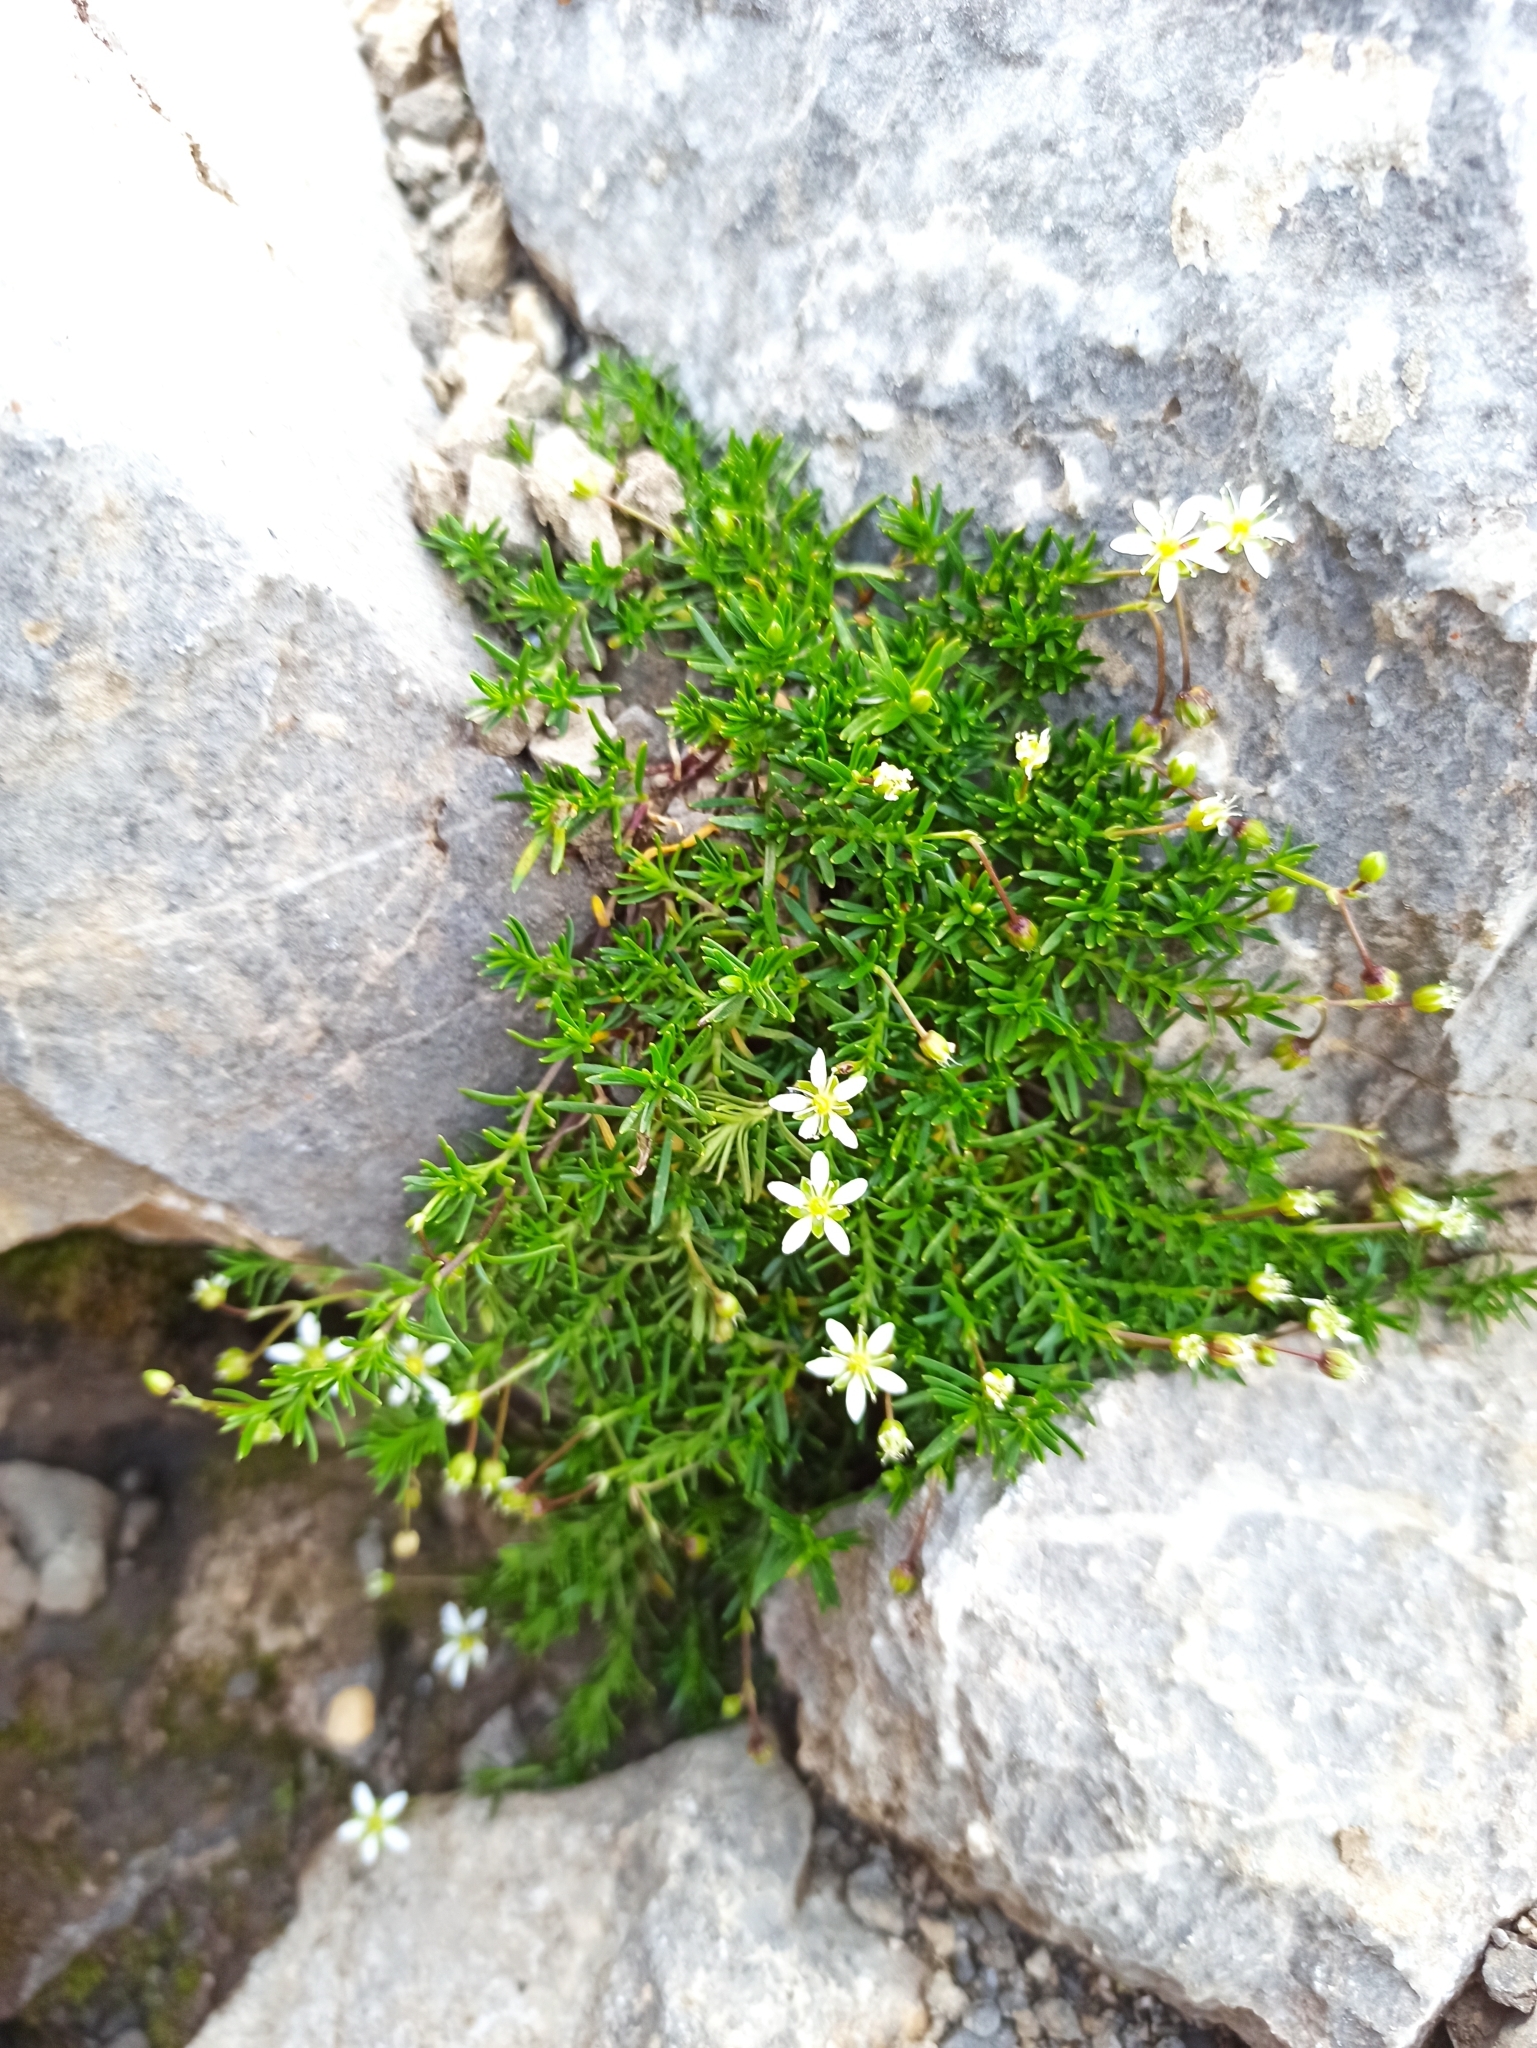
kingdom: Plantae
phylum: Tracheophyta
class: Magnoliopsida
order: Caryophyllales
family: Caryophyllaceae
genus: Moehringia
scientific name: Moehringia ciliata
